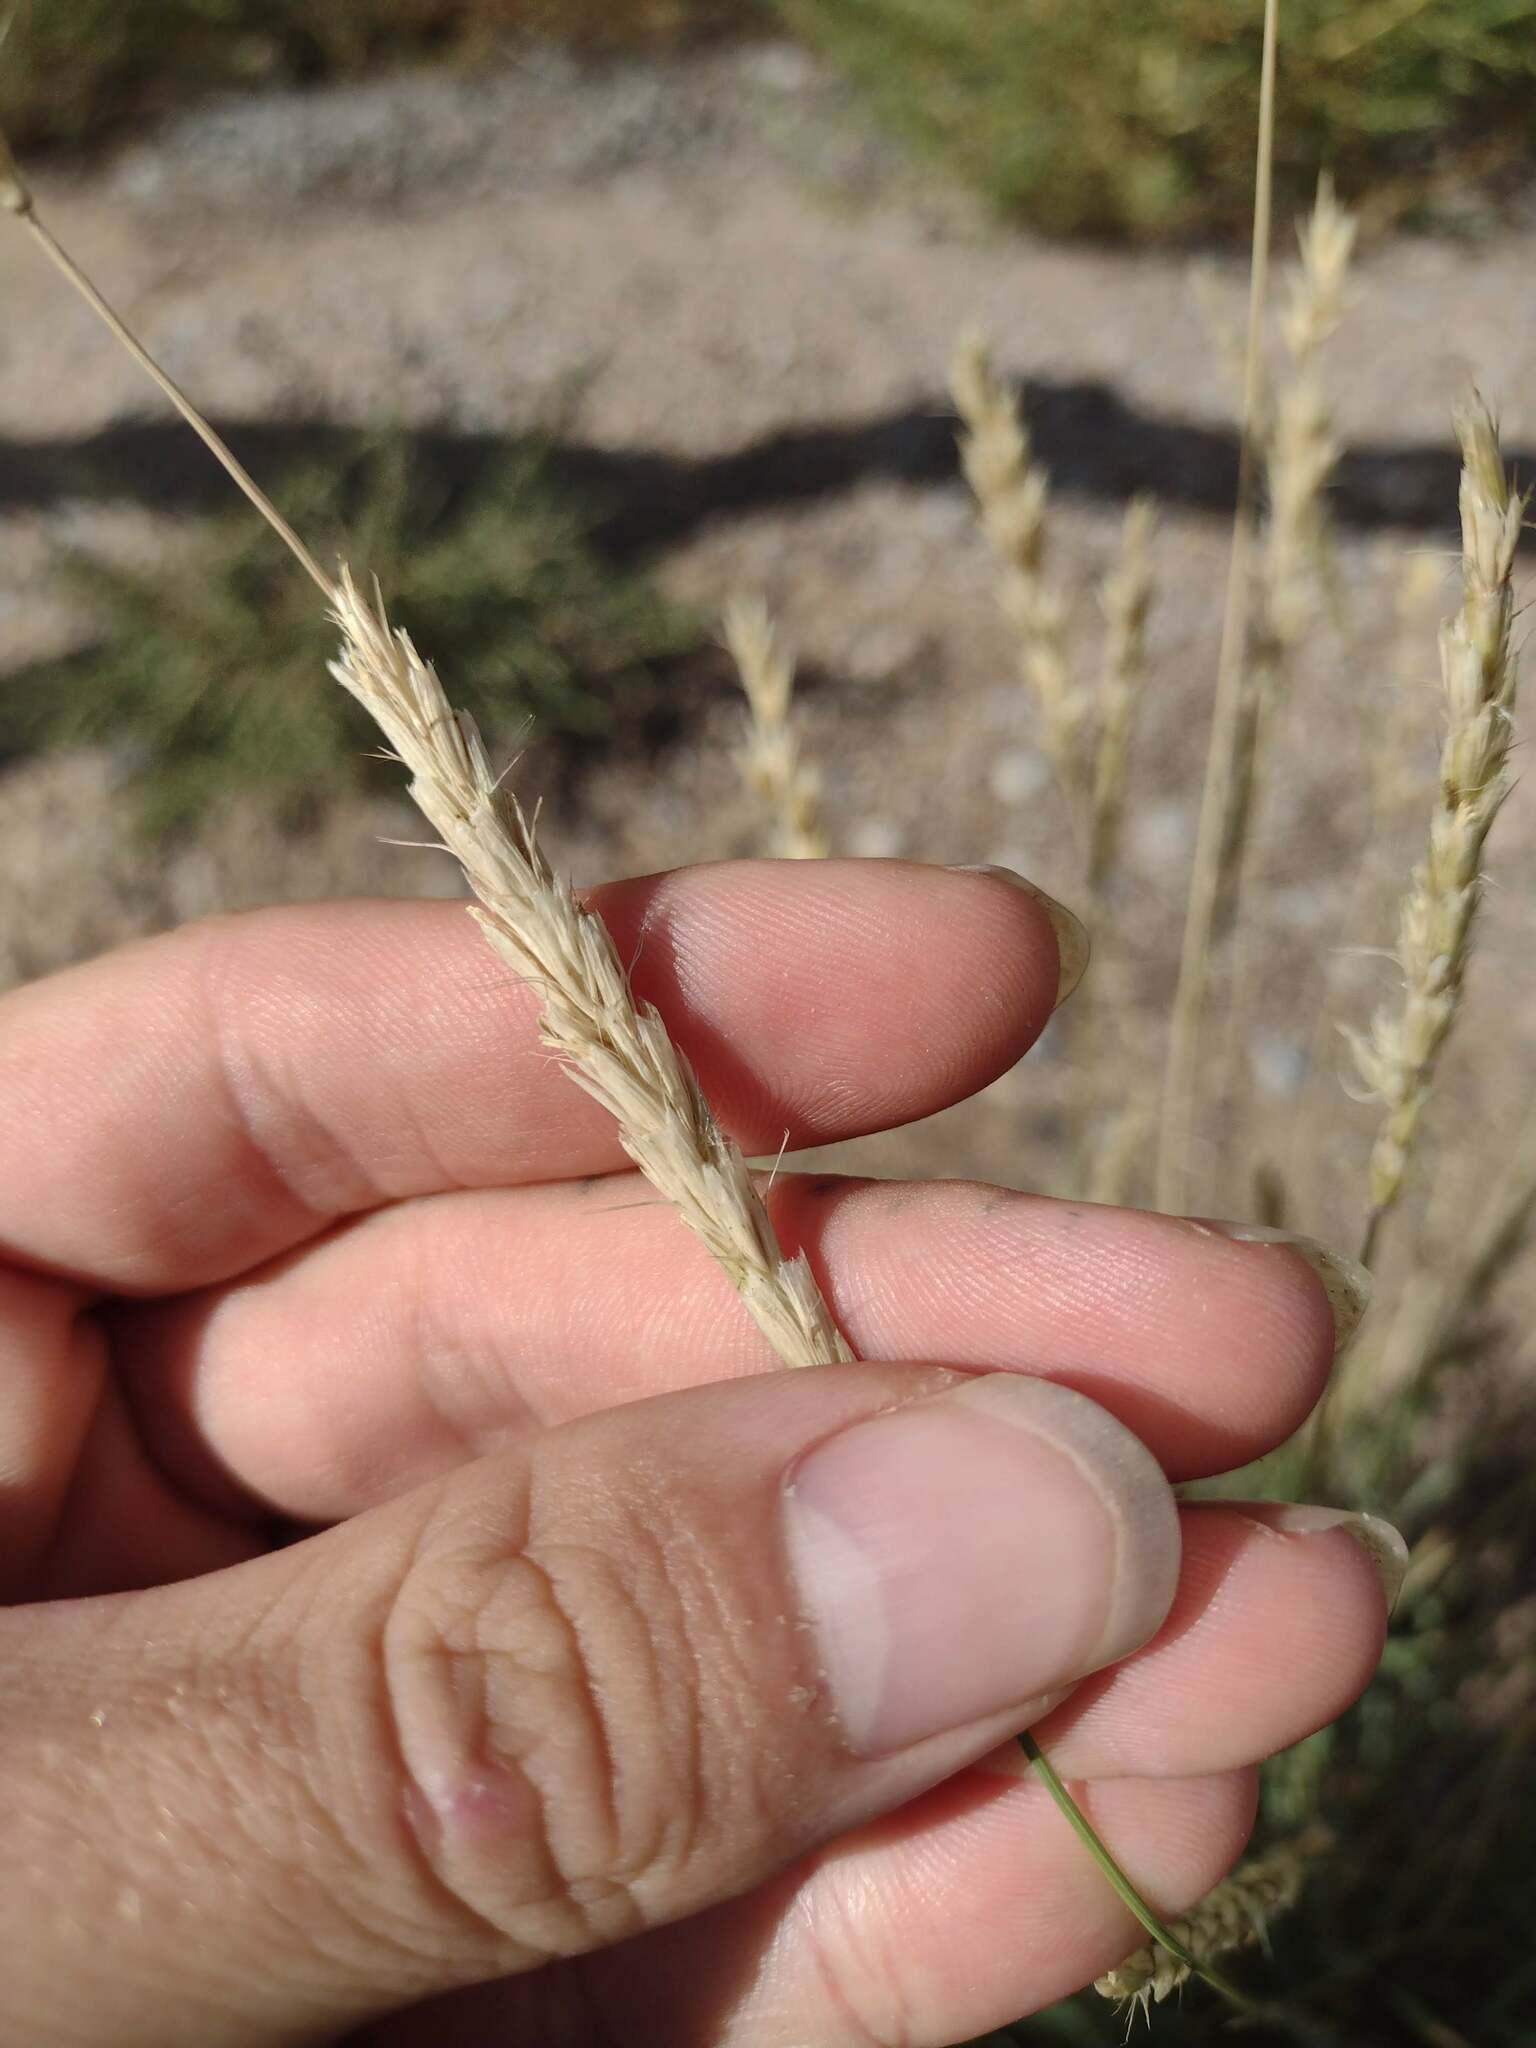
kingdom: Plantae
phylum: Tracheophyta
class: Liliopsida
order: Poales
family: Poaceae
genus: Hilaria
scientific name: Hilaria rigida
